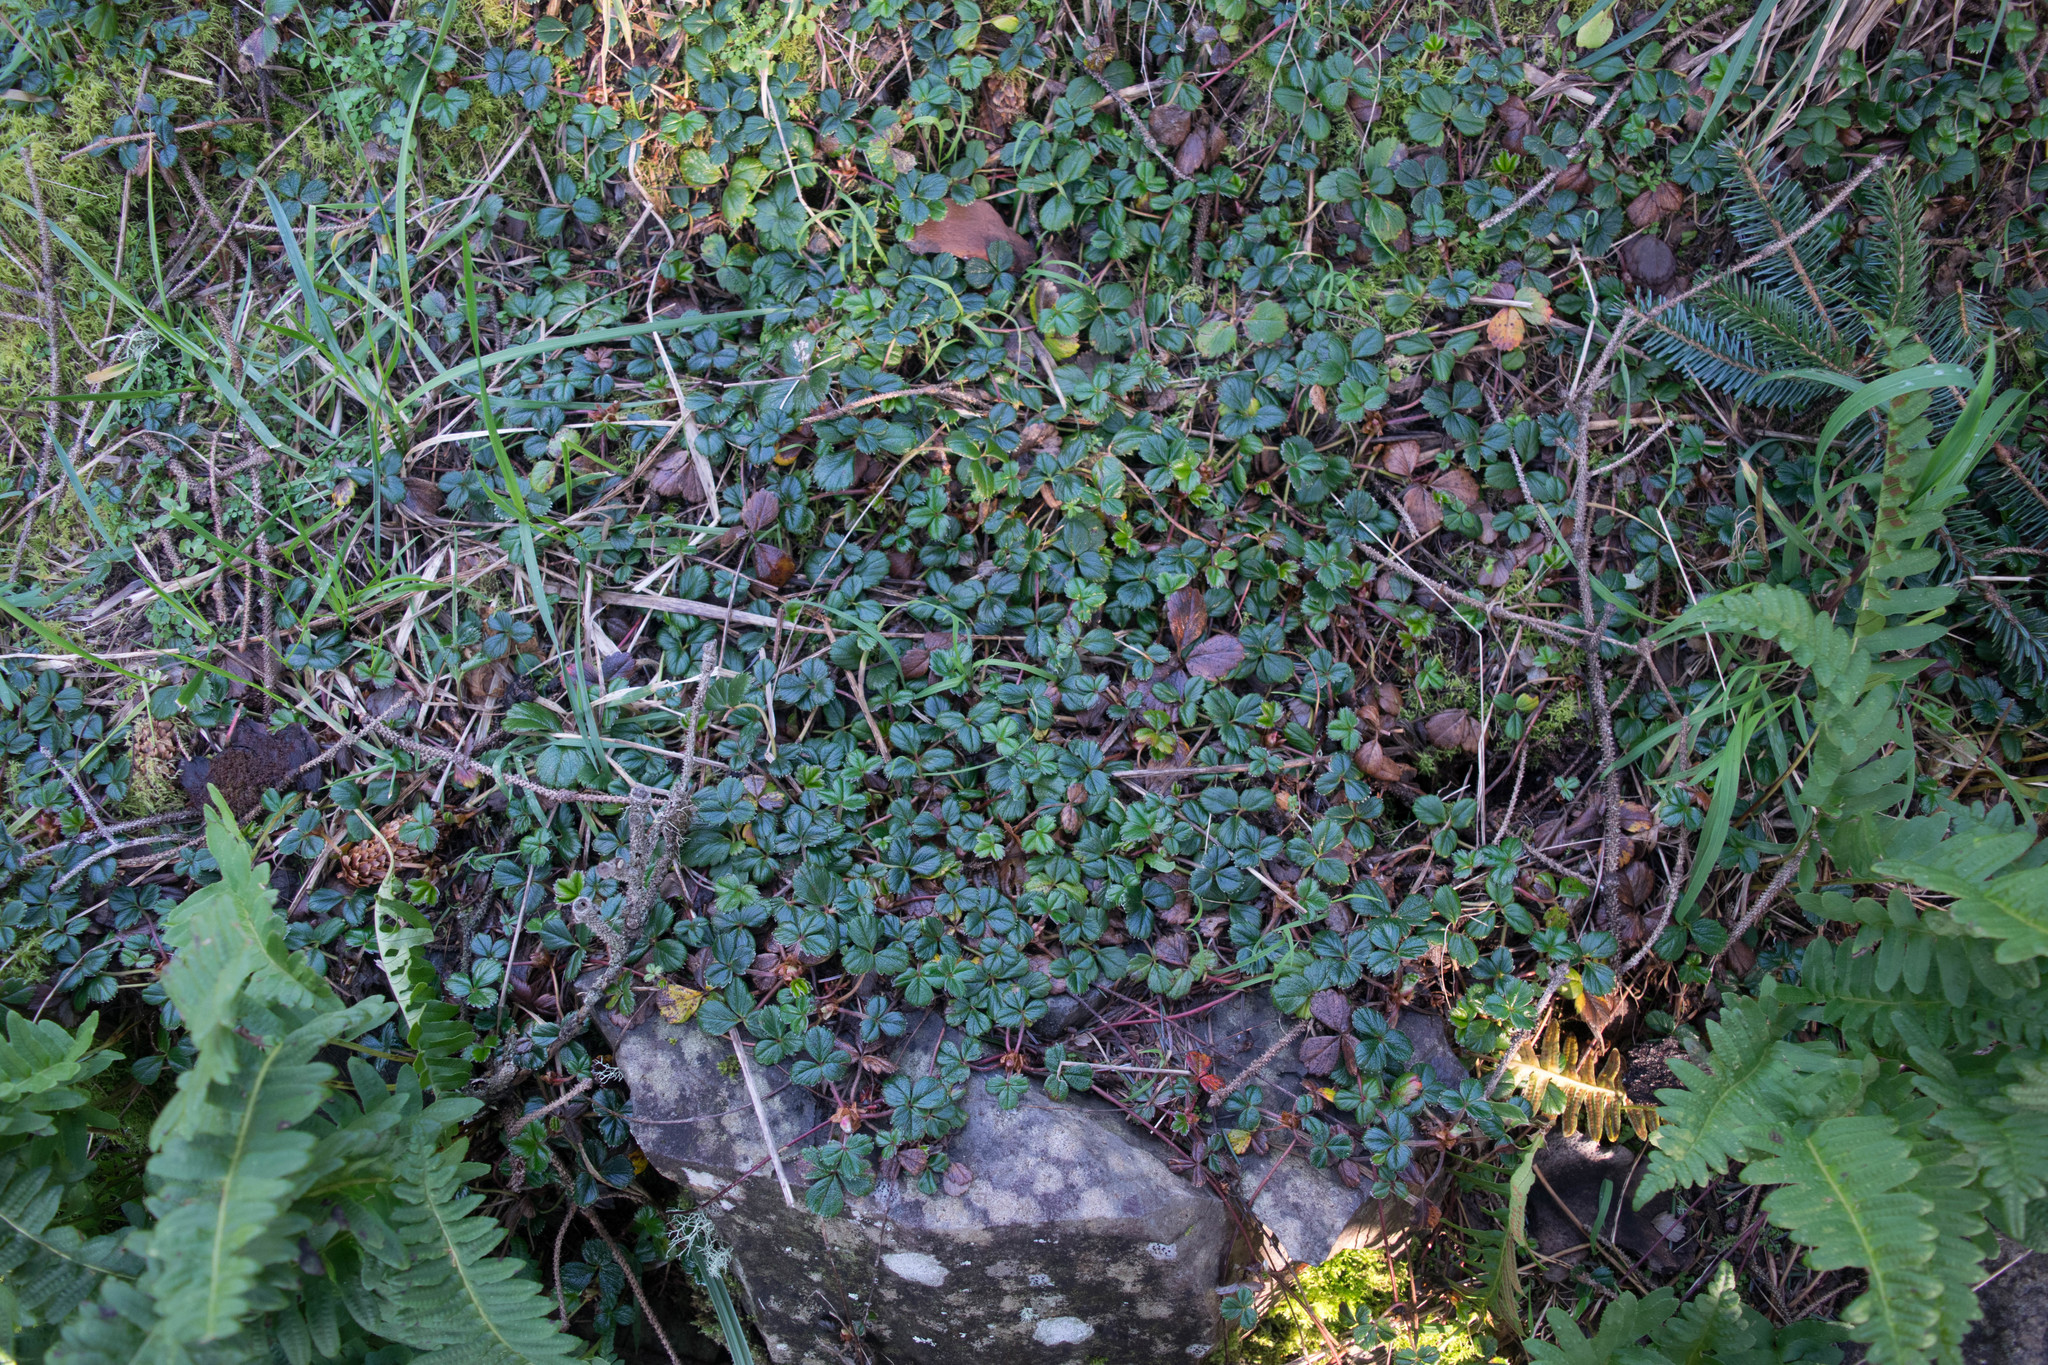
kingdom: Plantae
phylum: Tracheophyta
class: Magnoliopsida
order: Rosales
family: Rosaceae
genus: Fragaria
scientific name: Fragaria chiloensis
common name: Beach strawberry
